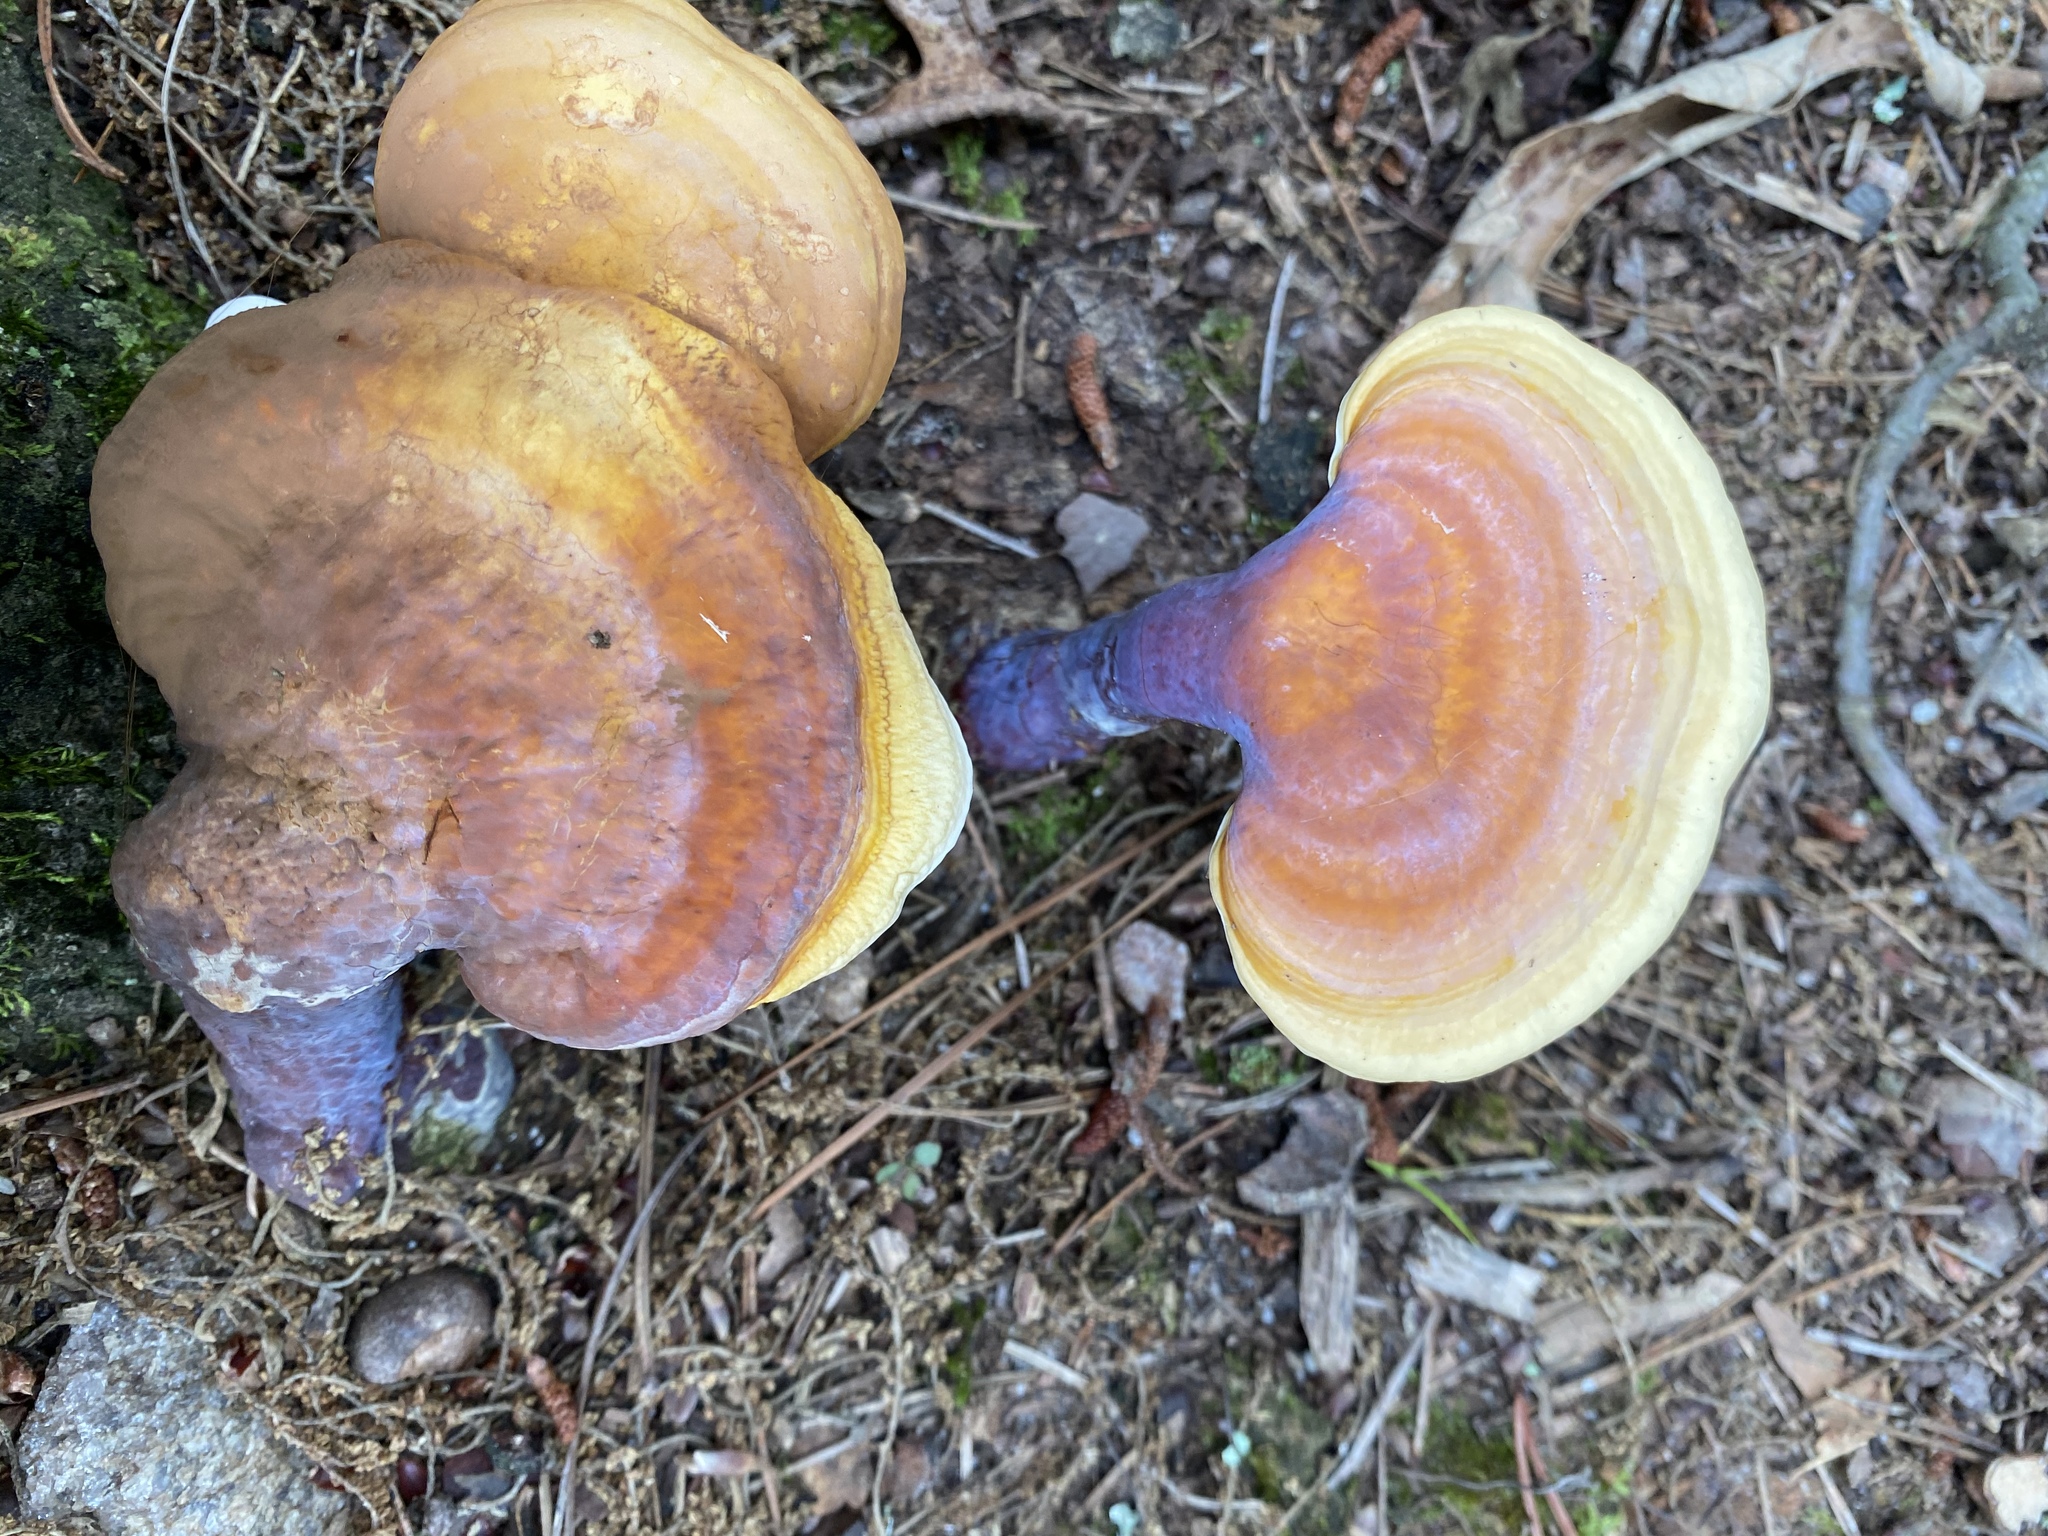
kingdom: Fungi
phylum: Basidiomycota
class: Agaricomycetes
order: Polyporales
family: Polyporaceae
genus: Ganoderma
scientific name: Ganoderma curtisii
